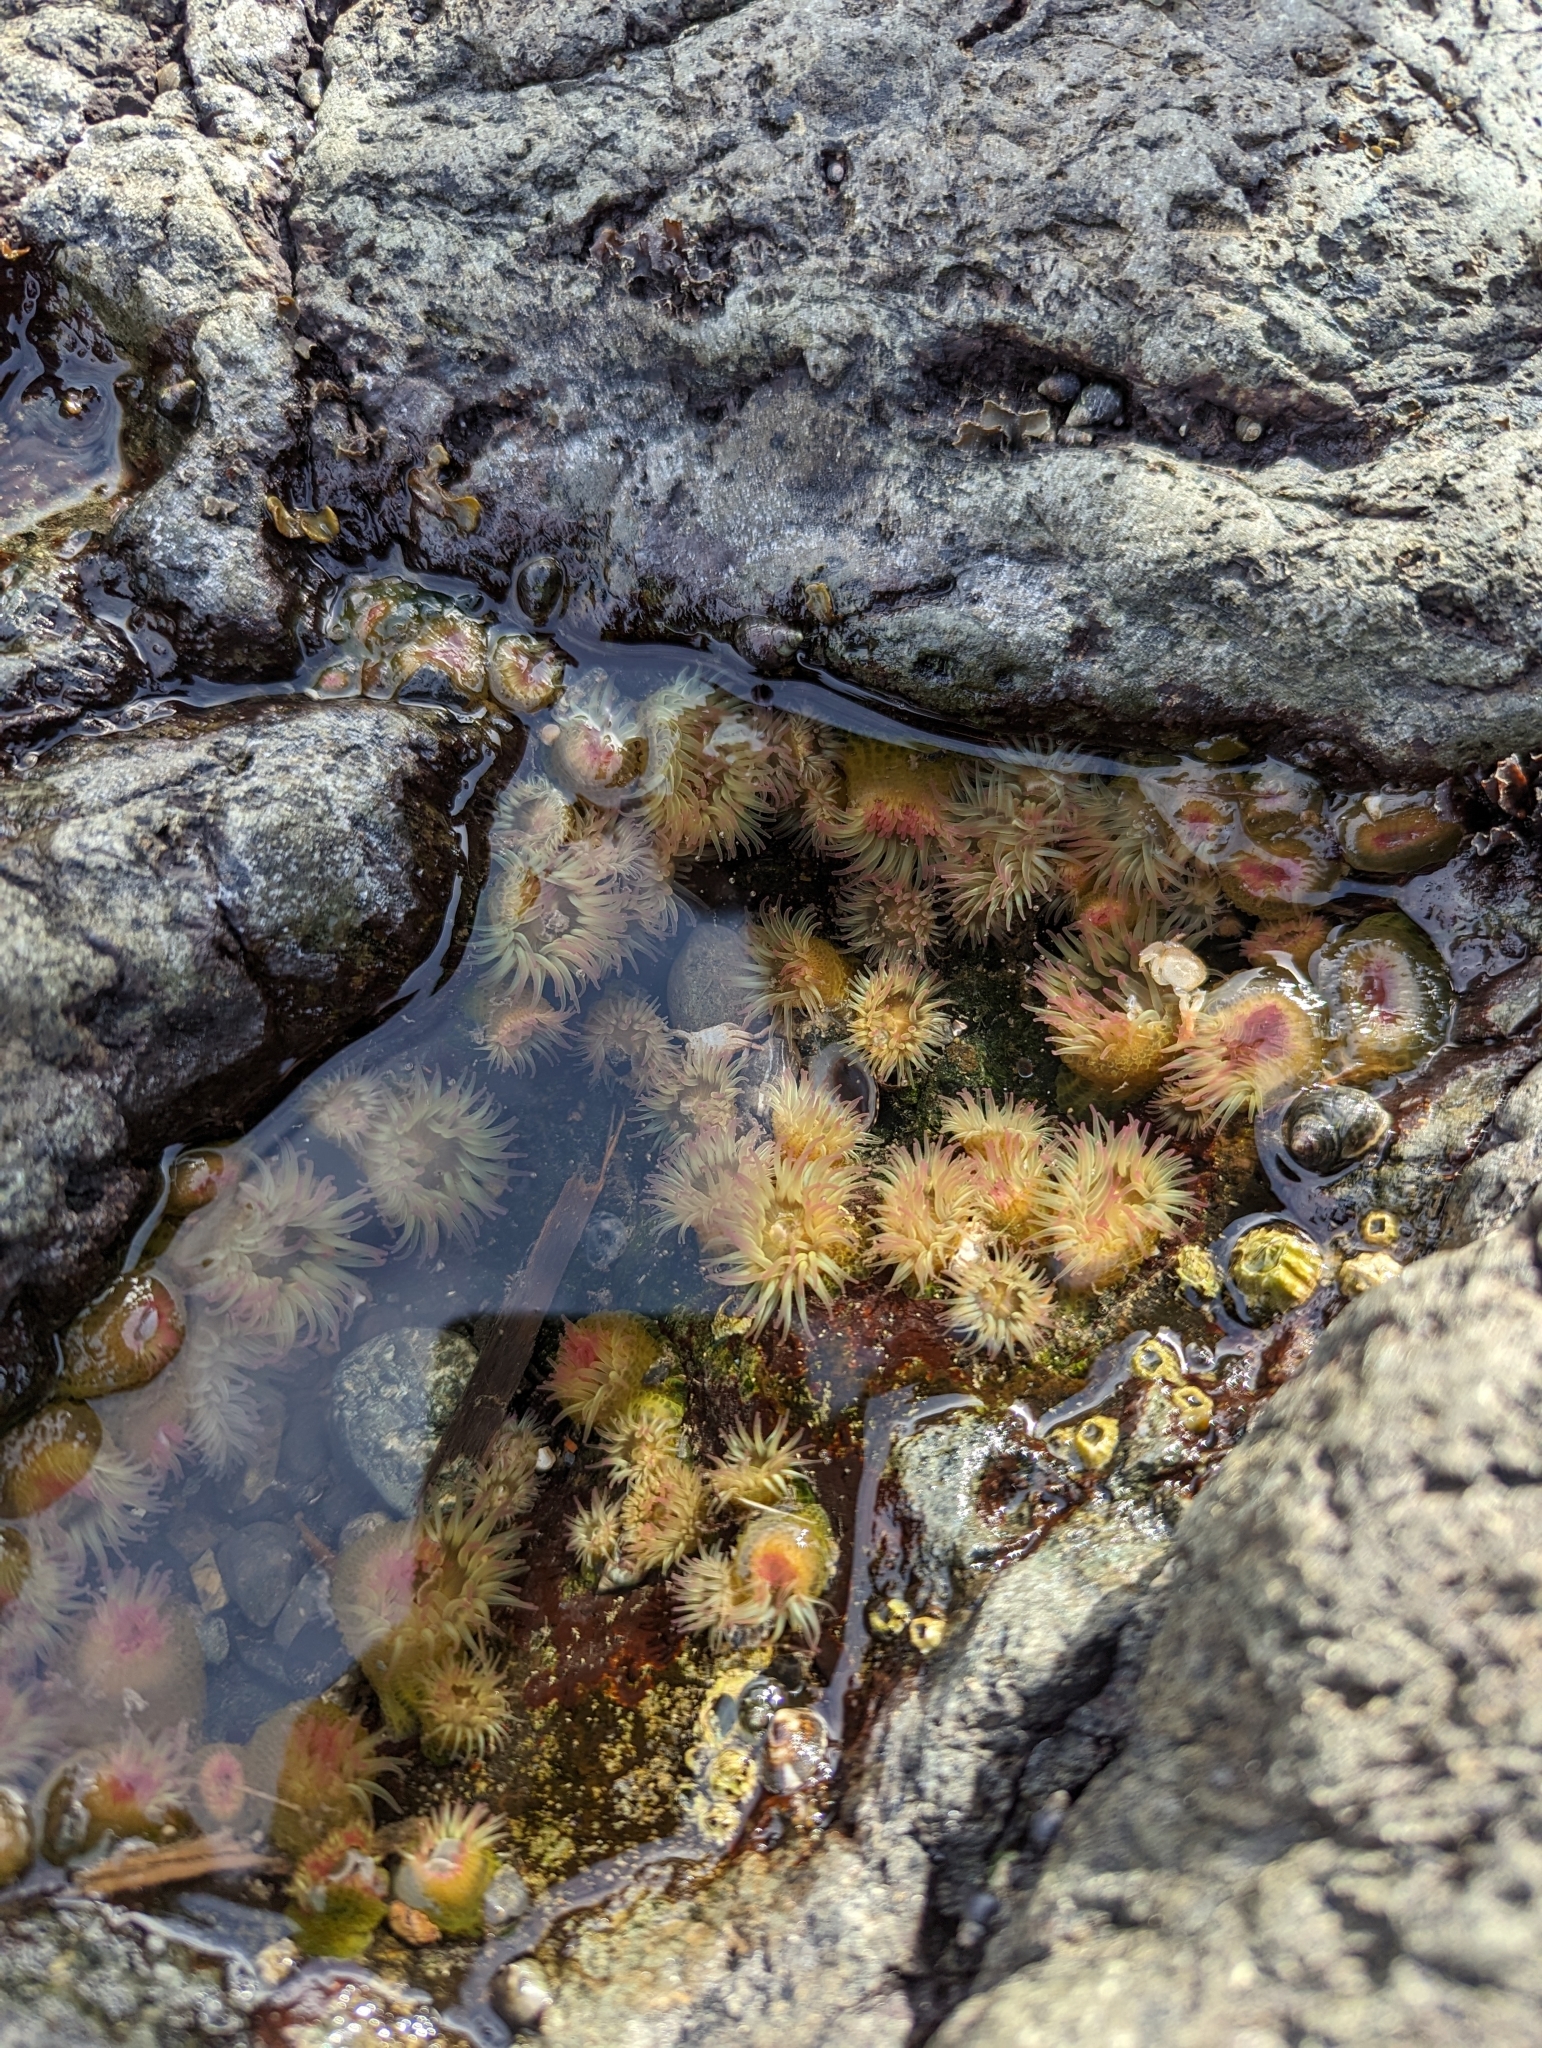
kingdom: Animalia
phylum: Cnidaria
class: Anthozoa
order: Actiniaria
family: Actiniidae
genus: Anthopleura
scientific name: Anthopleura elegantissima
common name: Clonal anemone
